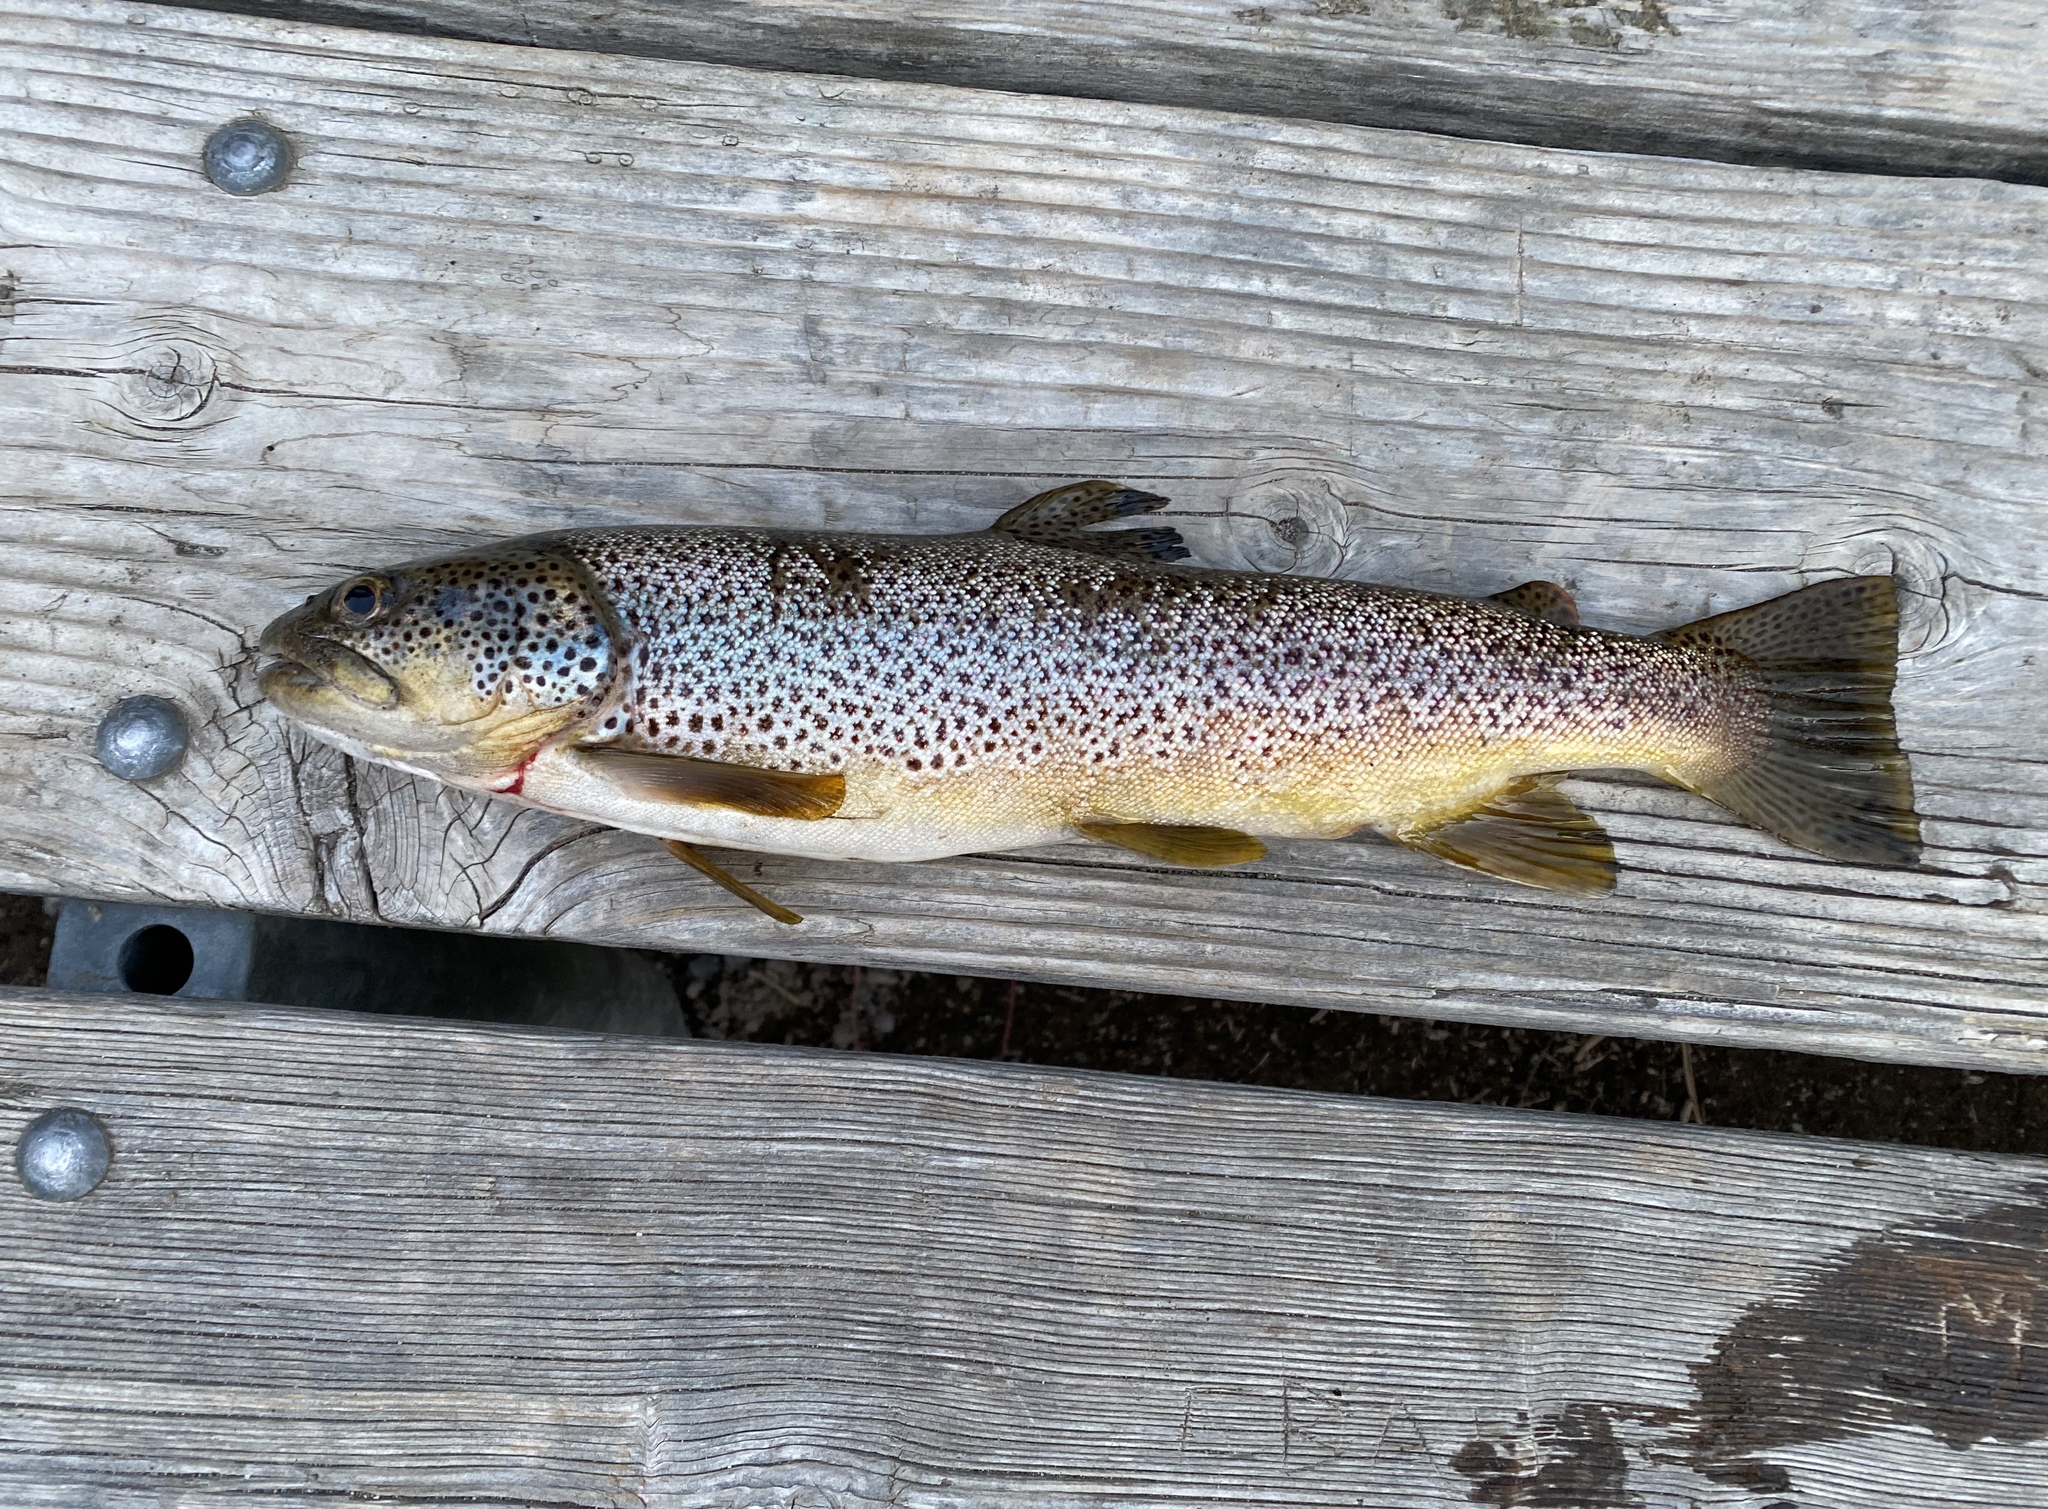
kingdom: Animalia
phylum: Chordata
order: Salmoniformes
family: Salmonidae
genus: Salmo
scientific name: Salmo trutta
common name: Brown trout
